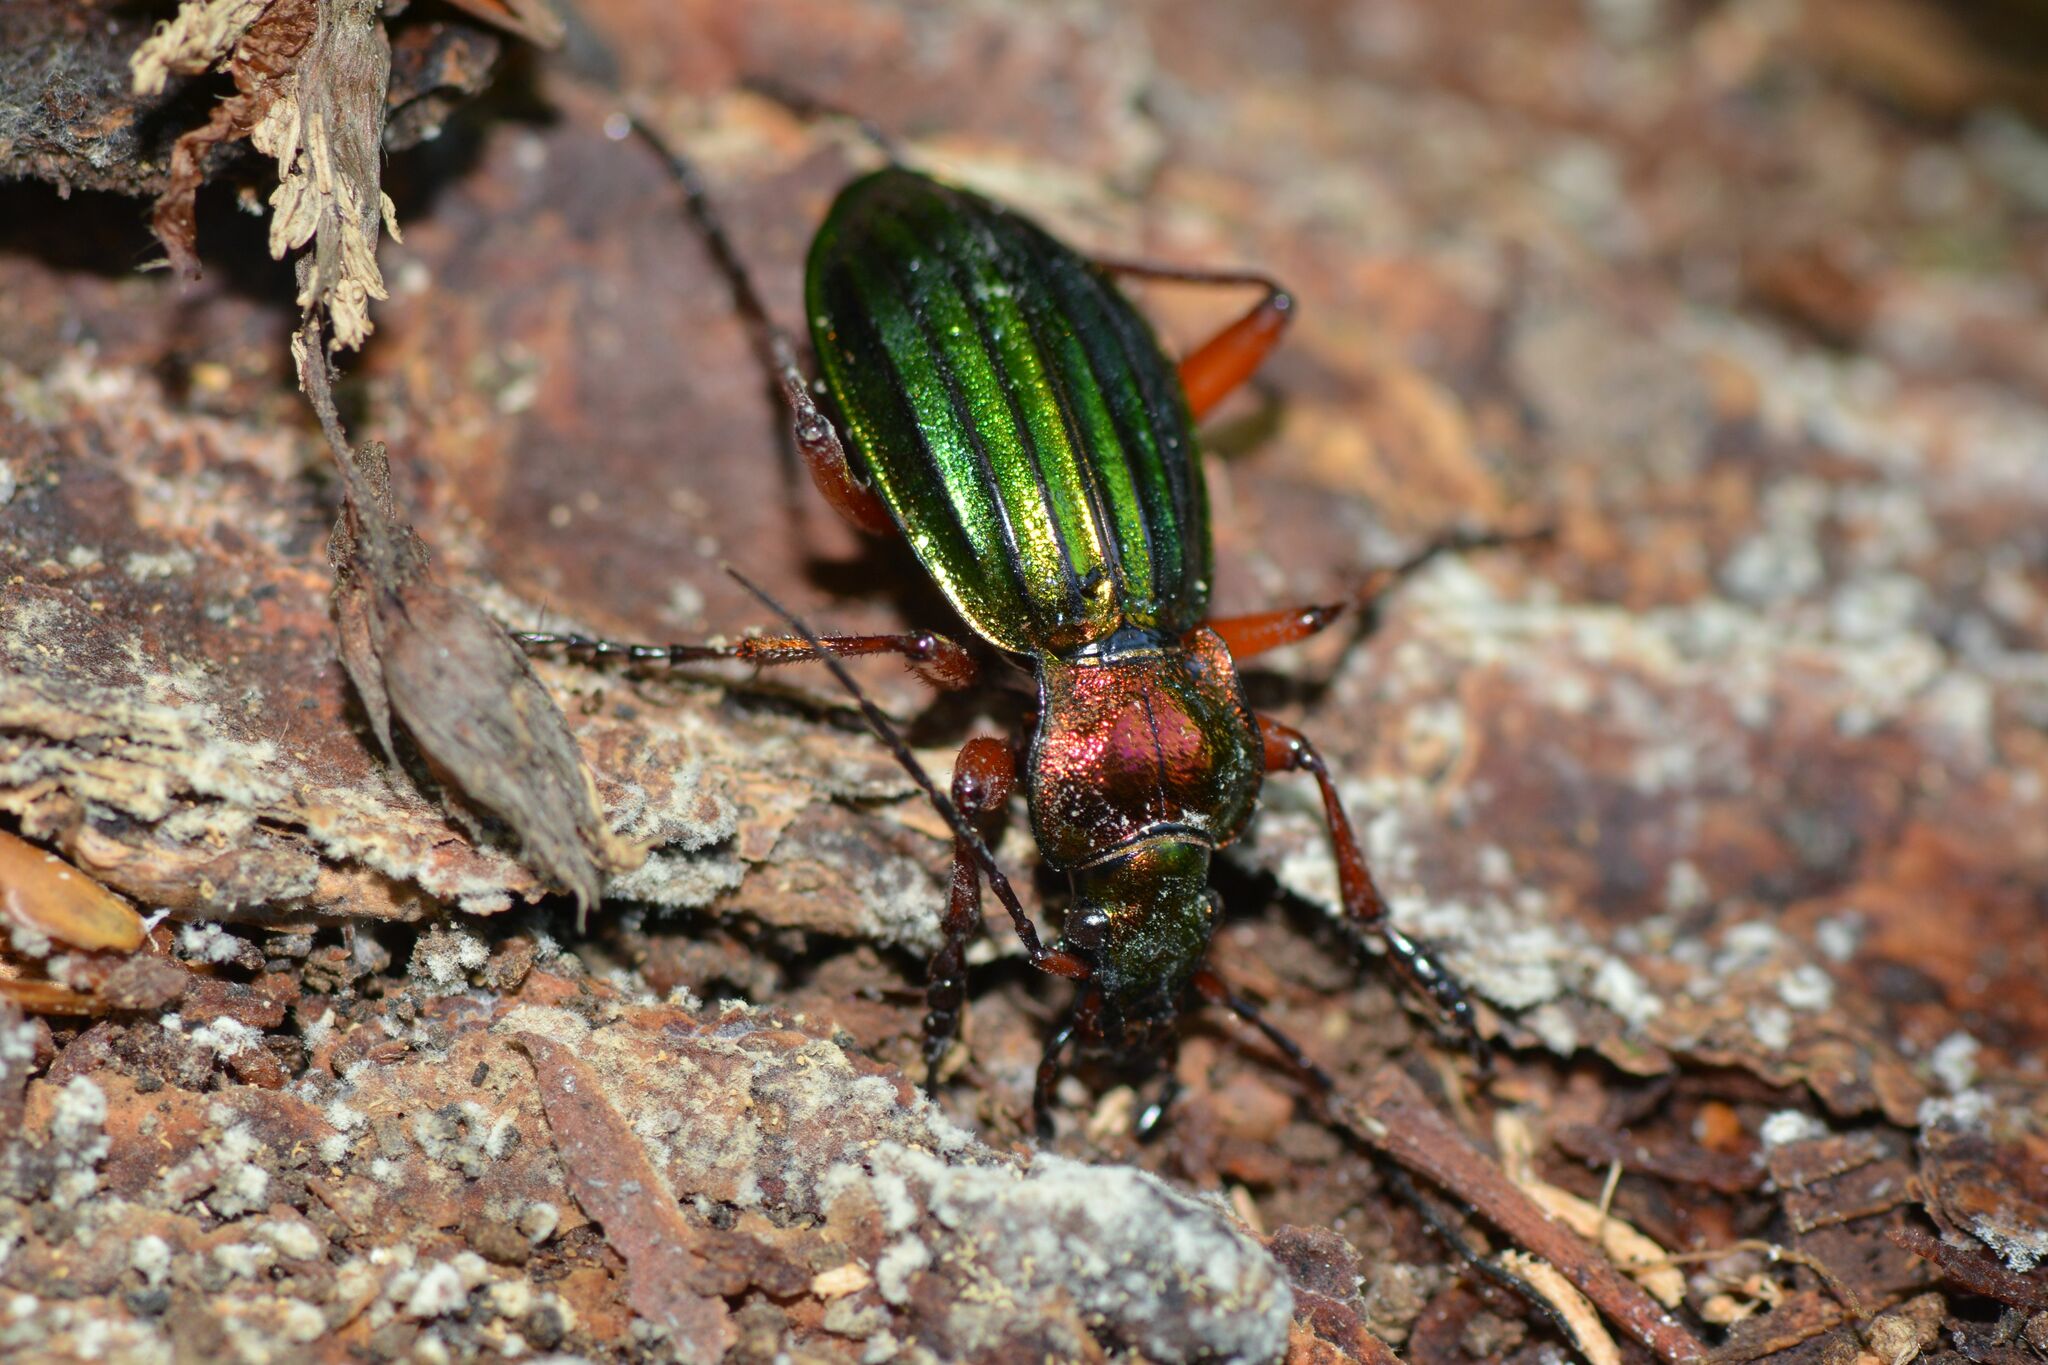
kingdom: Animalia
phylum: Arthropoda
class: Insecta
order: Coleoptera
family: Carabidae
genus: Carabus
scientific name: Carabus auronitens
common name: Carabus auronitens
